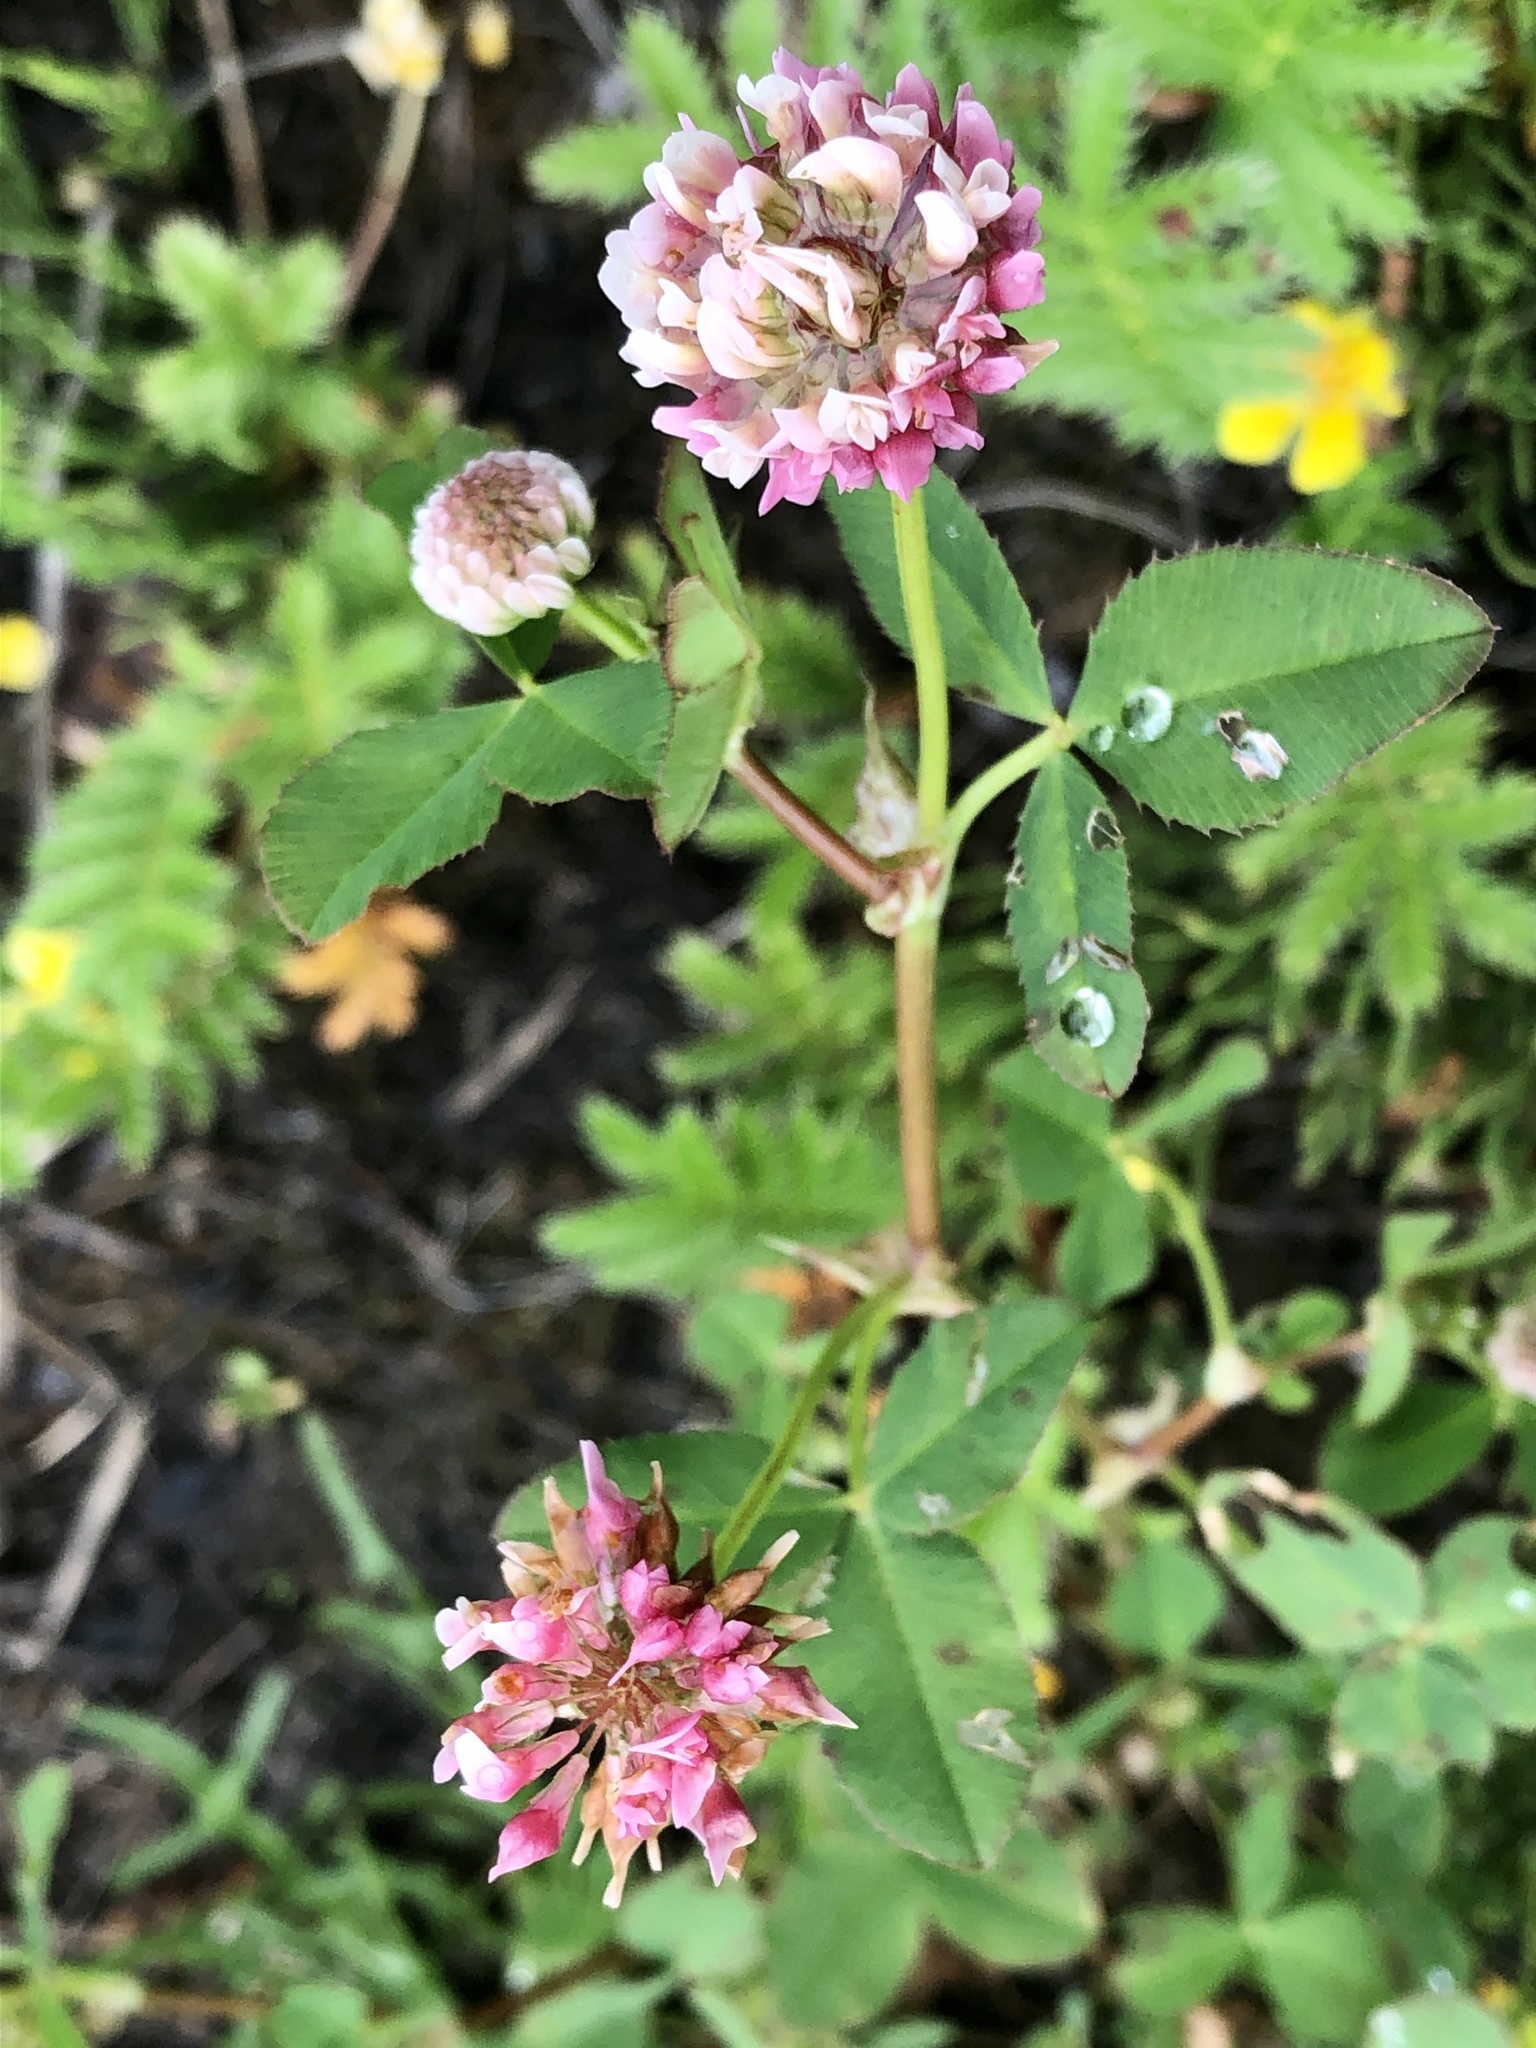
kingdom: Plantae
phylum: Tracheophyta
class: Magnoliopsida
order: Fabales
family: Fabaceae
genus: Trifolium
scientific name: Trifolium hybridum
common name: Alsike clover
